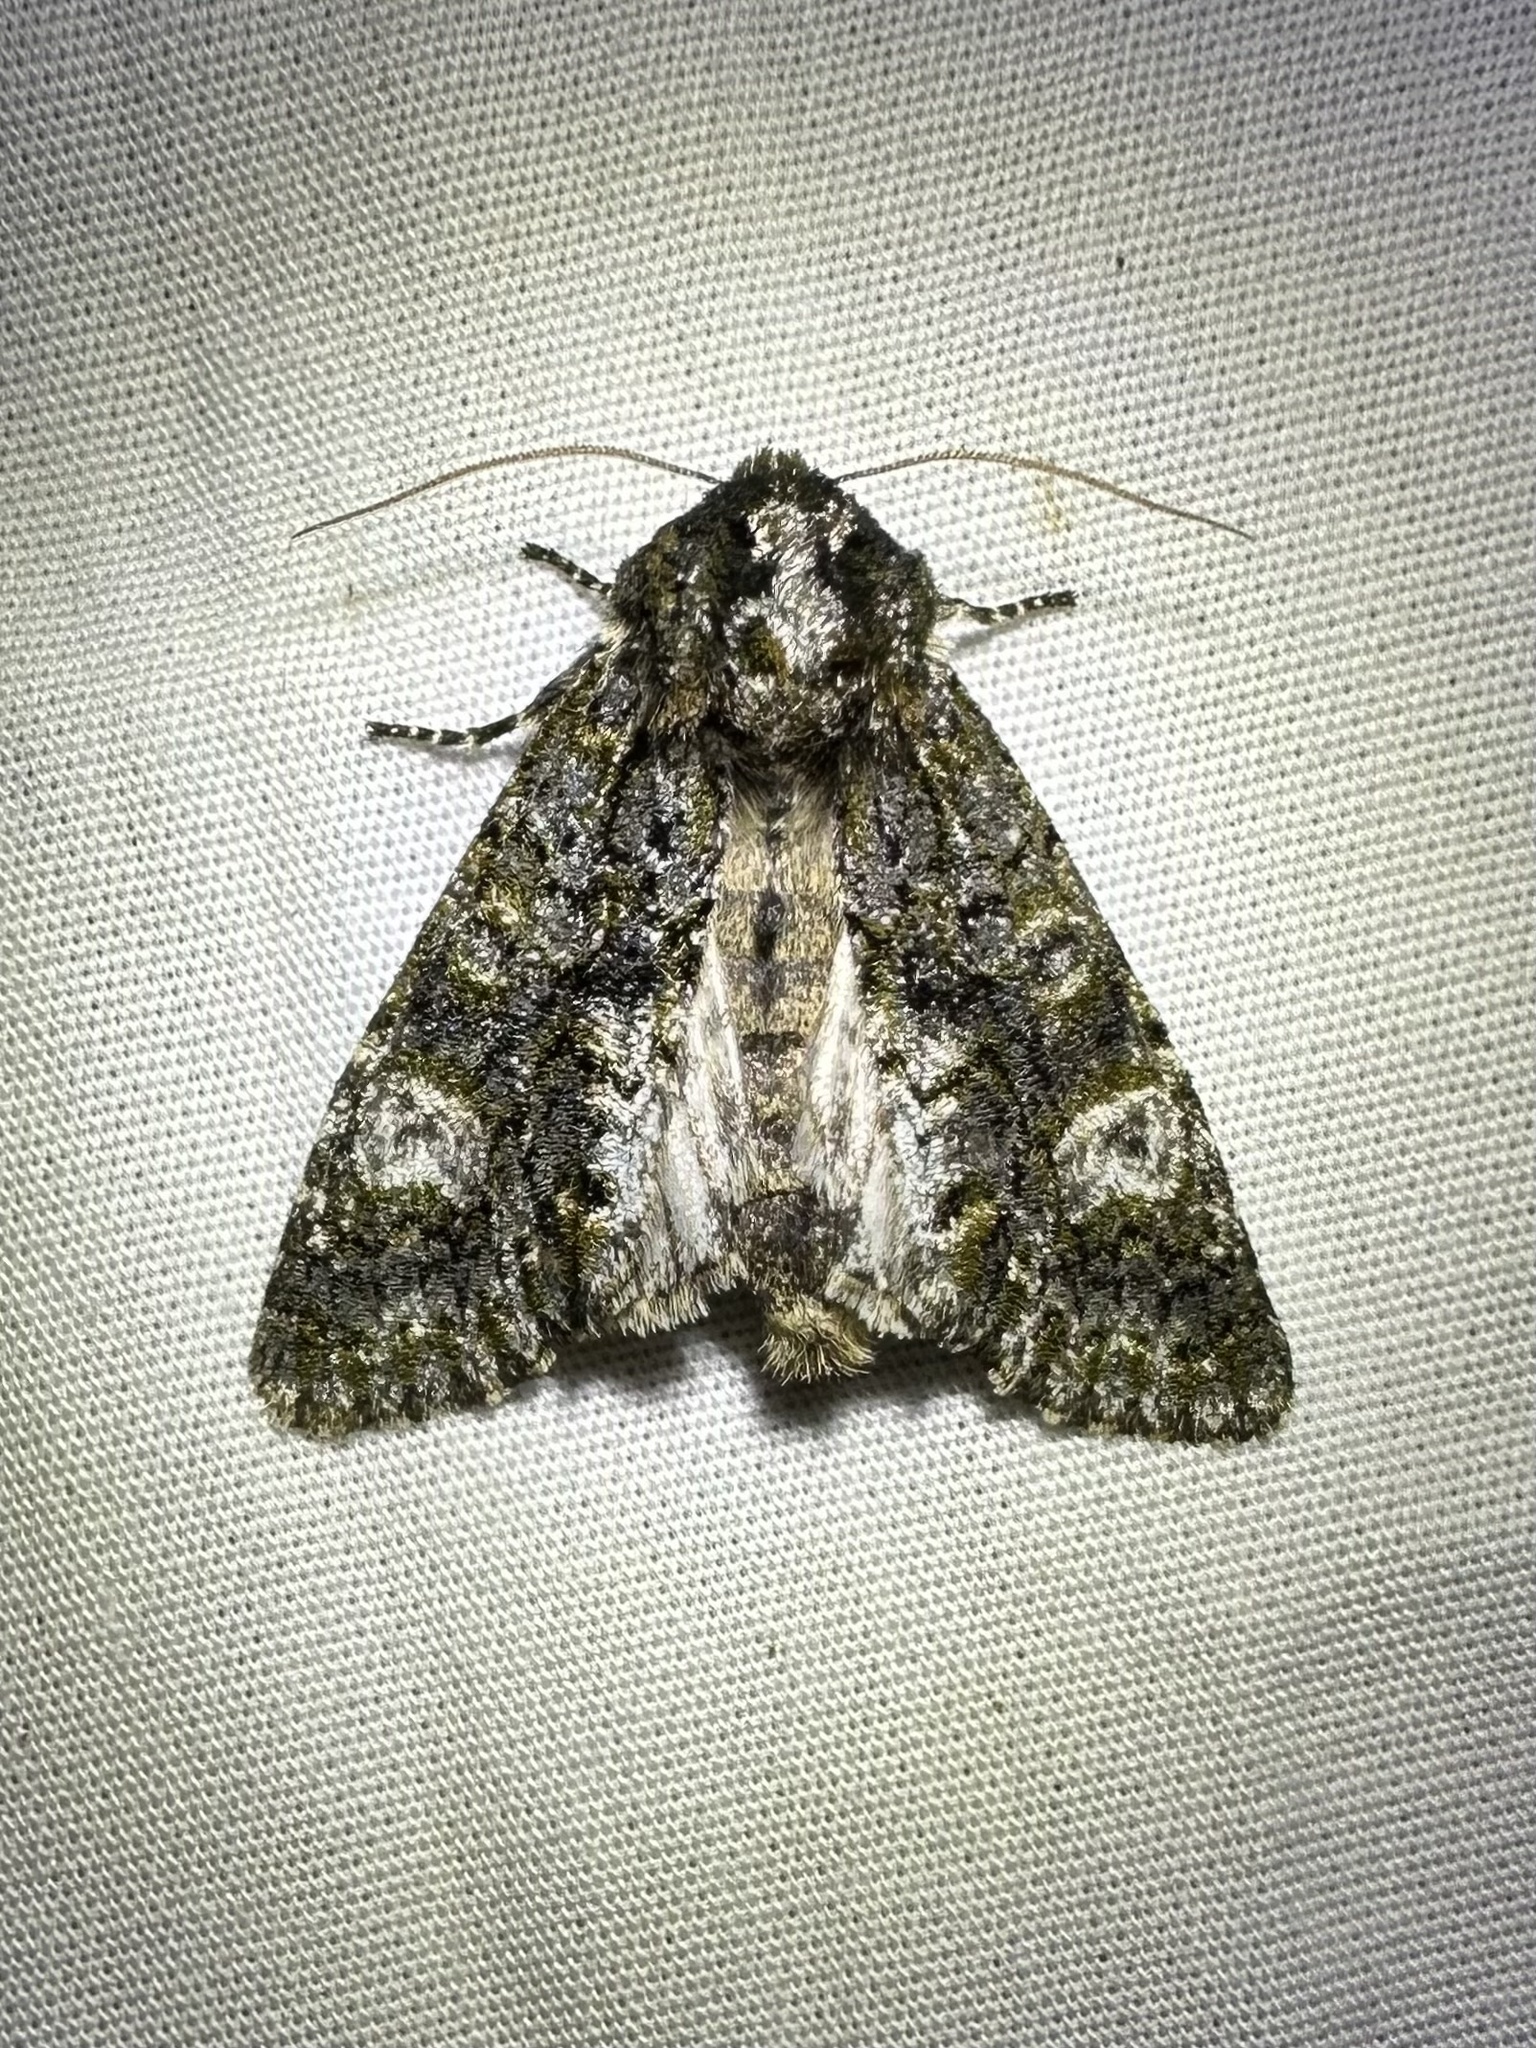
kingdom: Animalia
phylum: Arthropoda
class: Insecta
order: Lepidoptera
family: Noctuidae
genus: Psaphida
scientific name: Psaphida grotei
